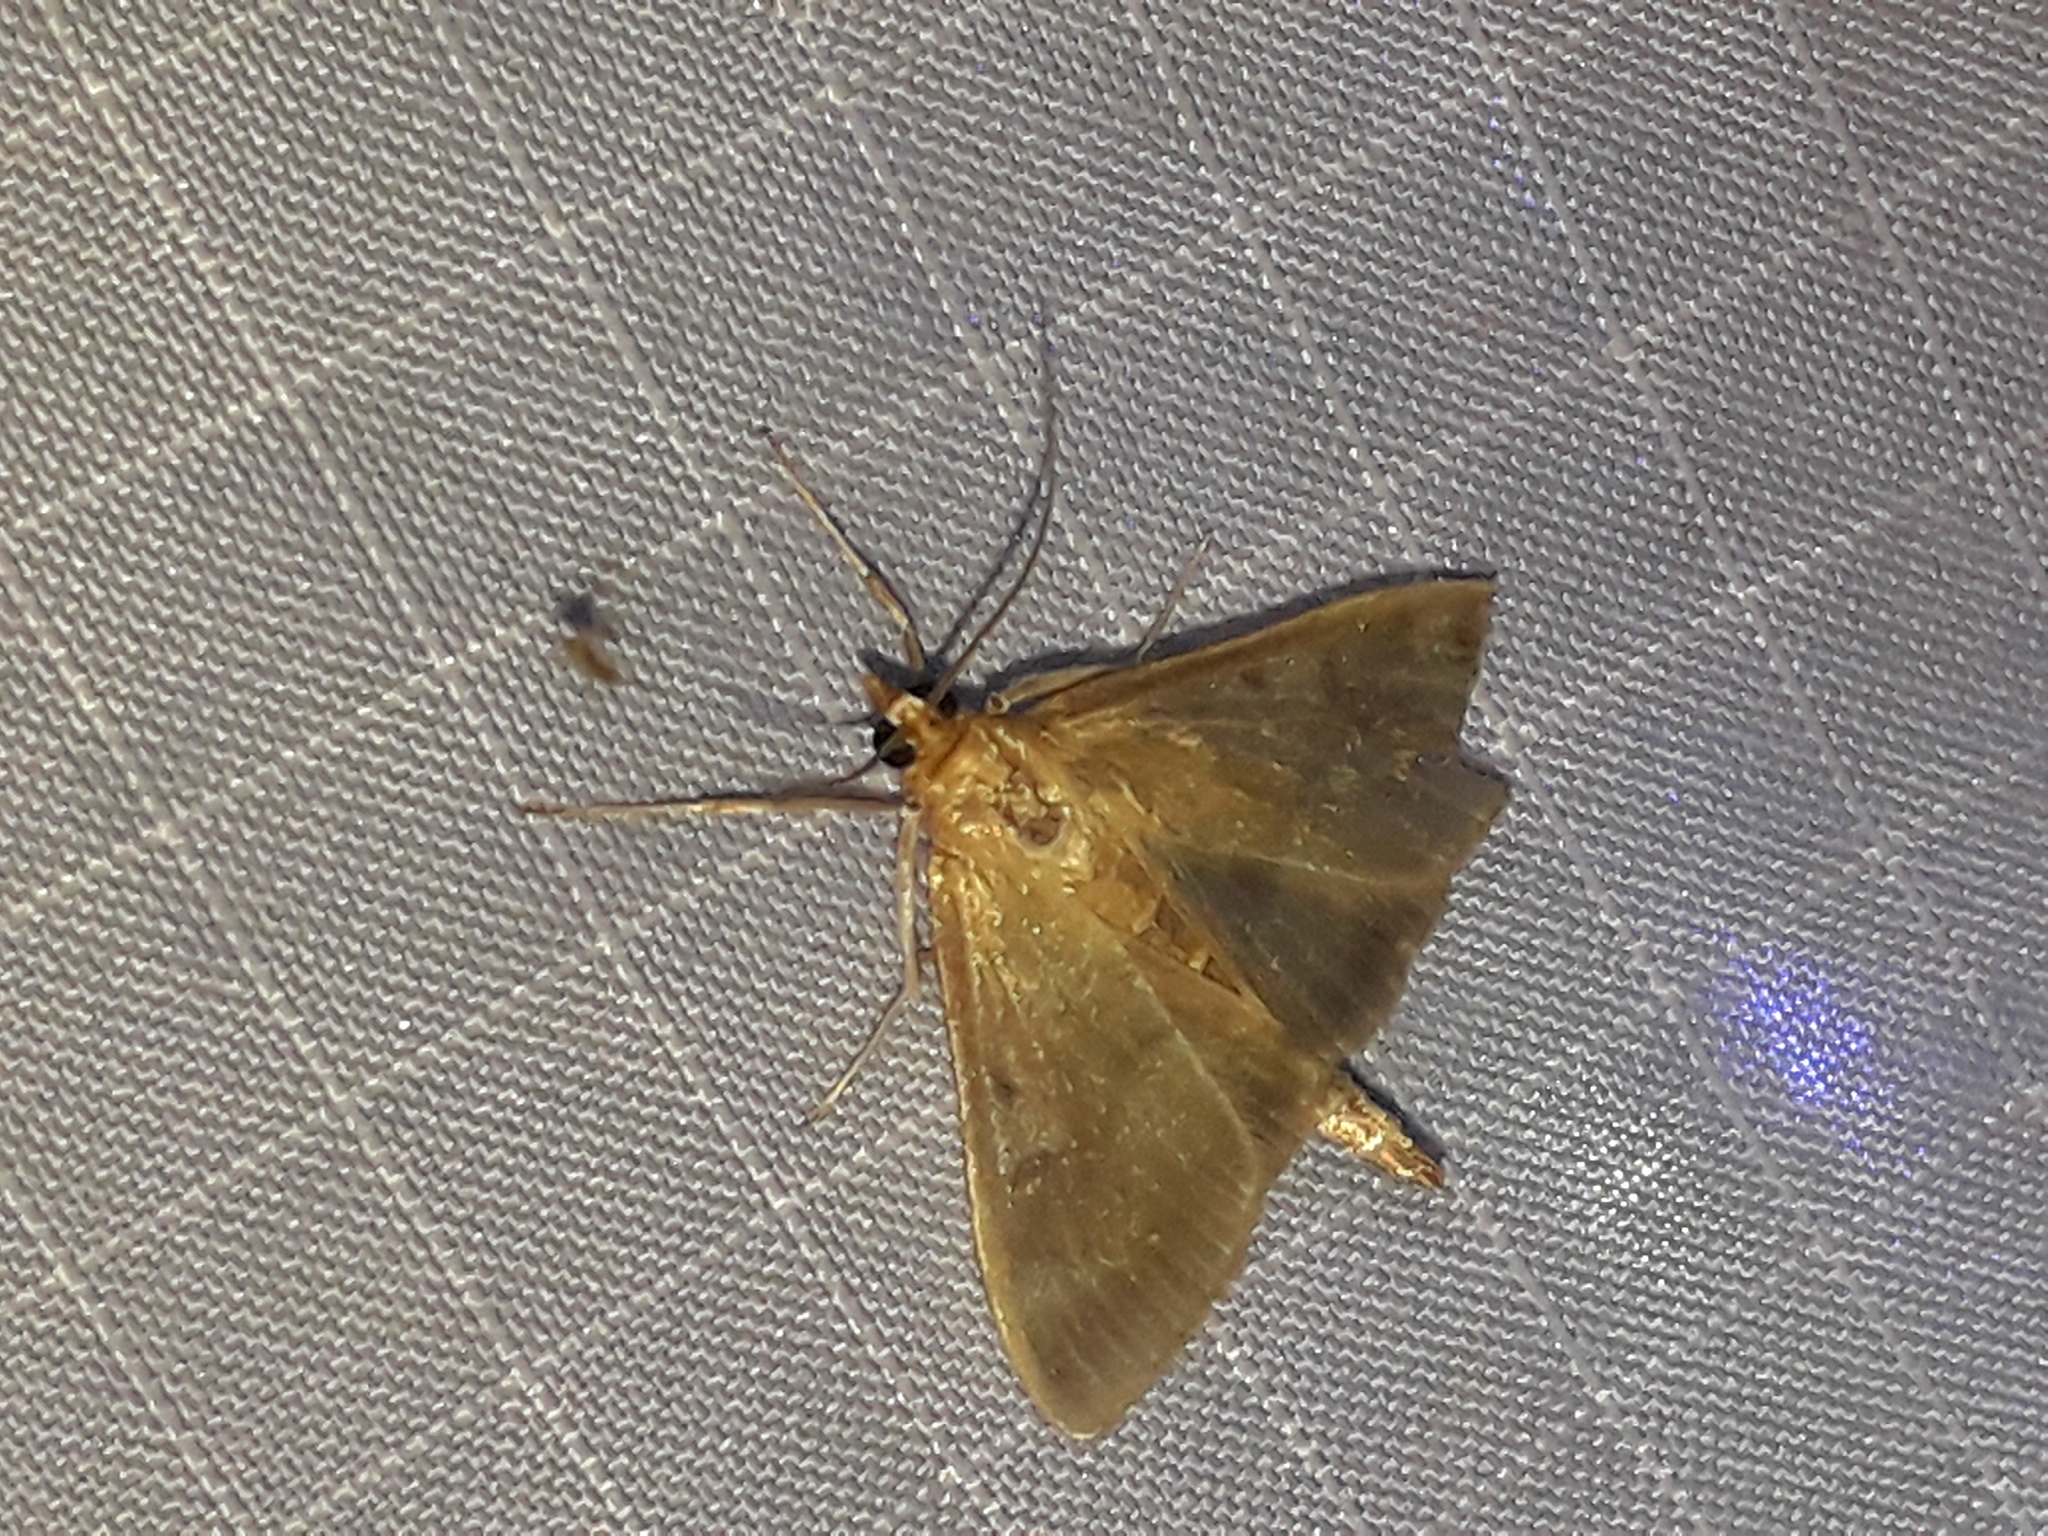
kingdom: Animalia
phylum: Arthropoda
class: Insecta
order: Lepidoptera
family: Crambidae
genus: Patania
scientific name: Patania ruralis
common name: Mother of pearl
